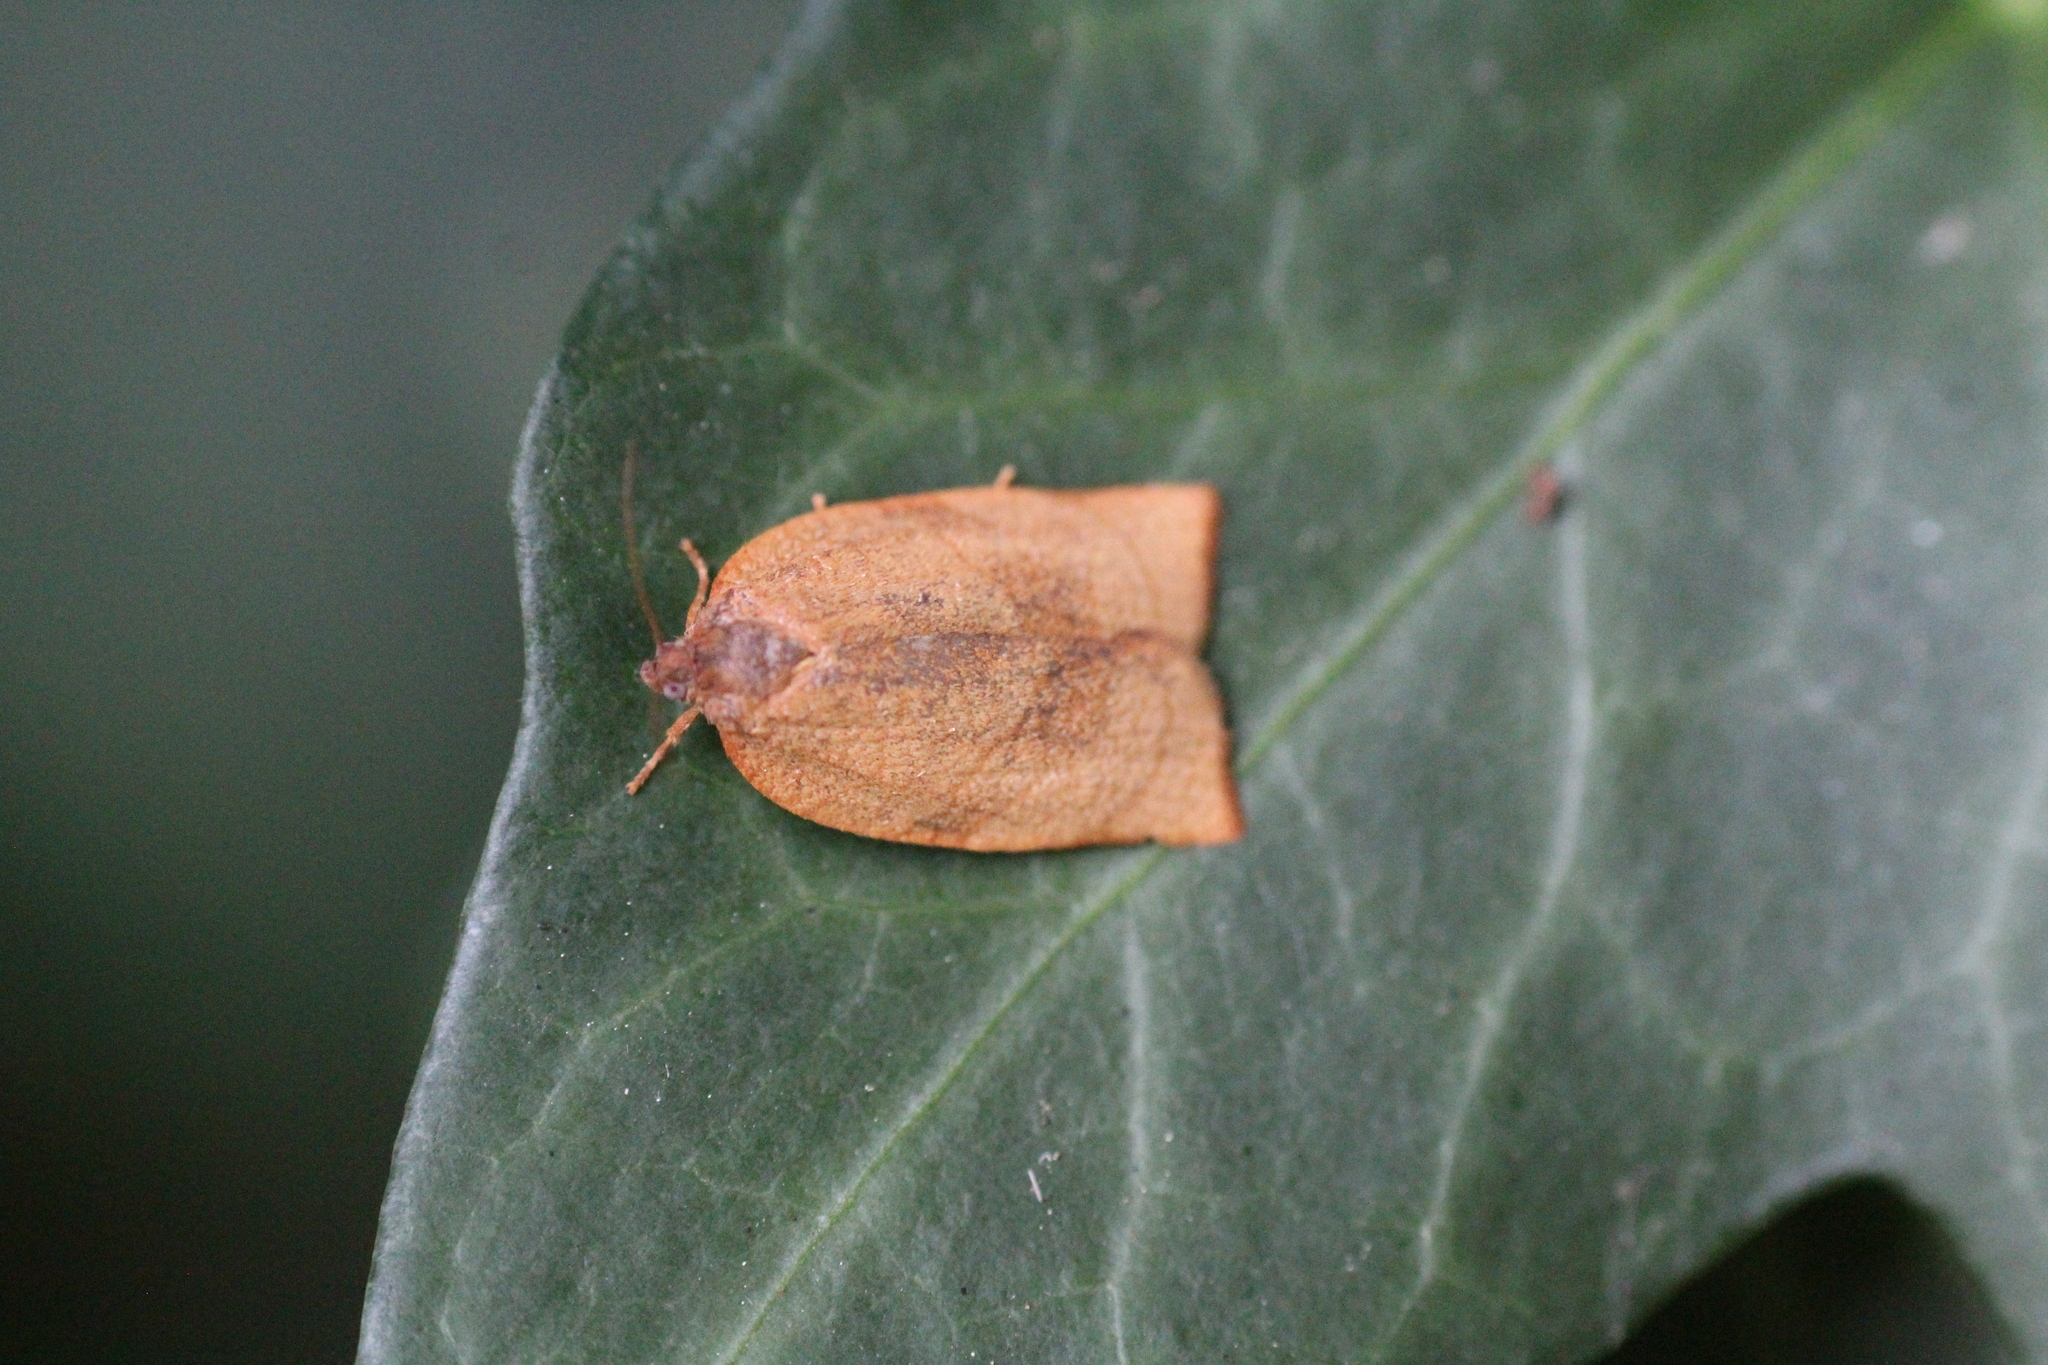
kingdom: Animalia
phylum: Arthropoda
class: Insecta
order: Lepidoptera
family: Tortricidae
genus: Cacoecimorpha
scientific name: Cacoecimorpha pronubana
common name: Carnation tortrix
